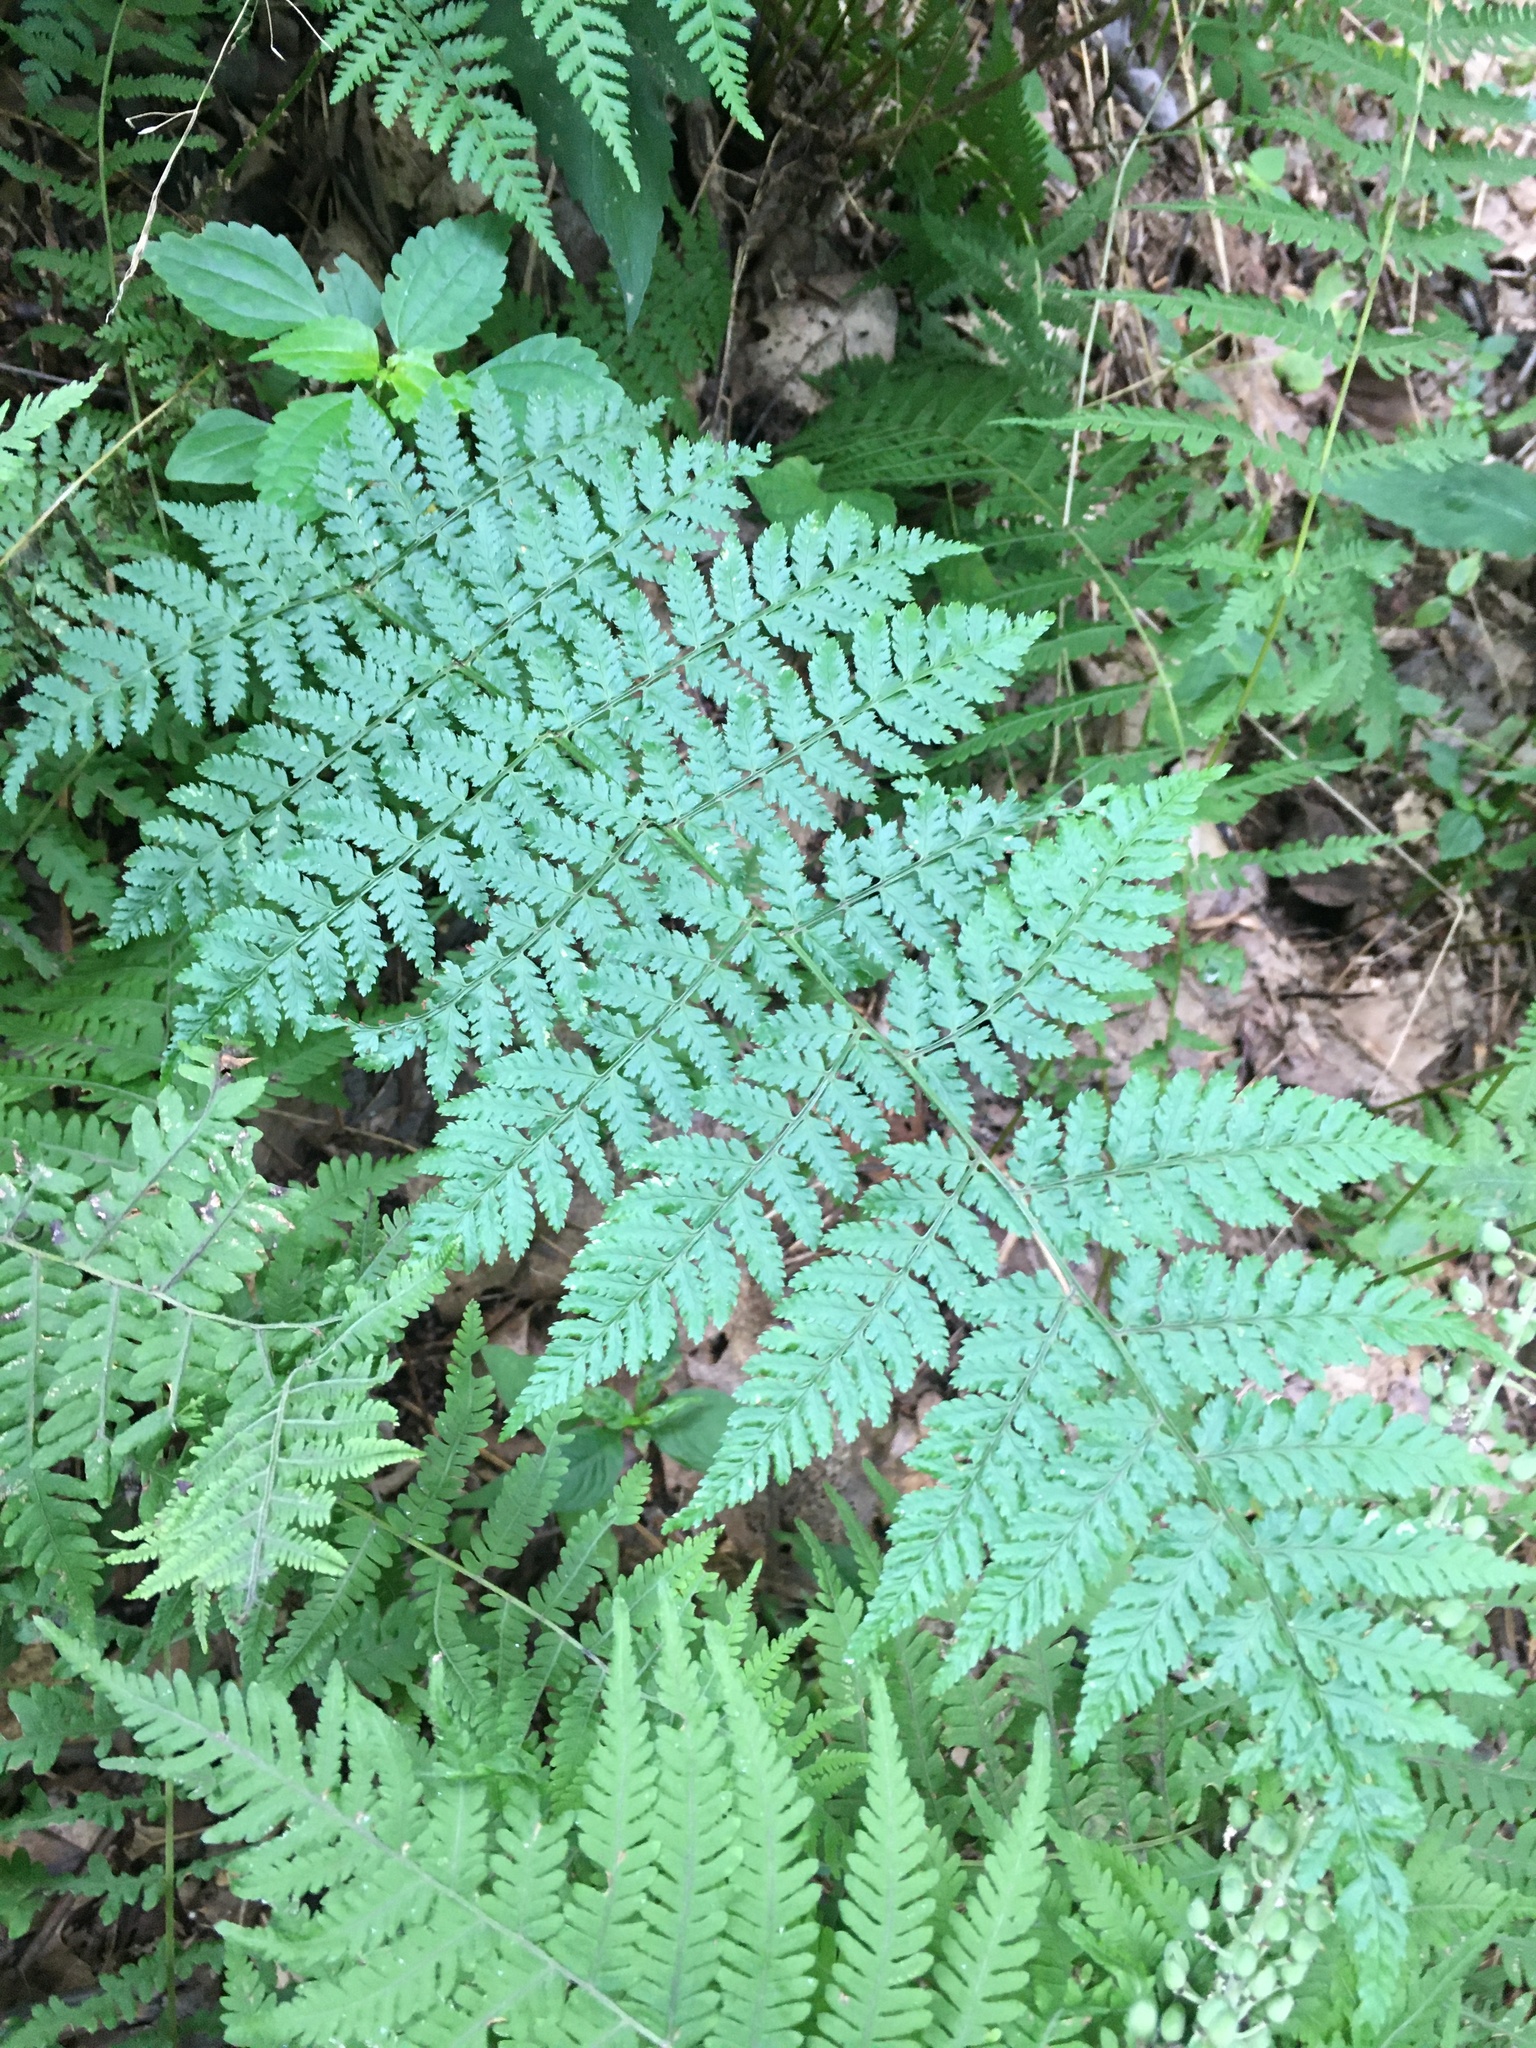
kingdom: Plantae
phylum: Tracheophyta
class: Polypodiopsida
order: Polypodiales
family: Dryopteridaceae
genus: Dryopteris
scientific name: Dryopteris intermedia
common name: Evergreen wood fern
